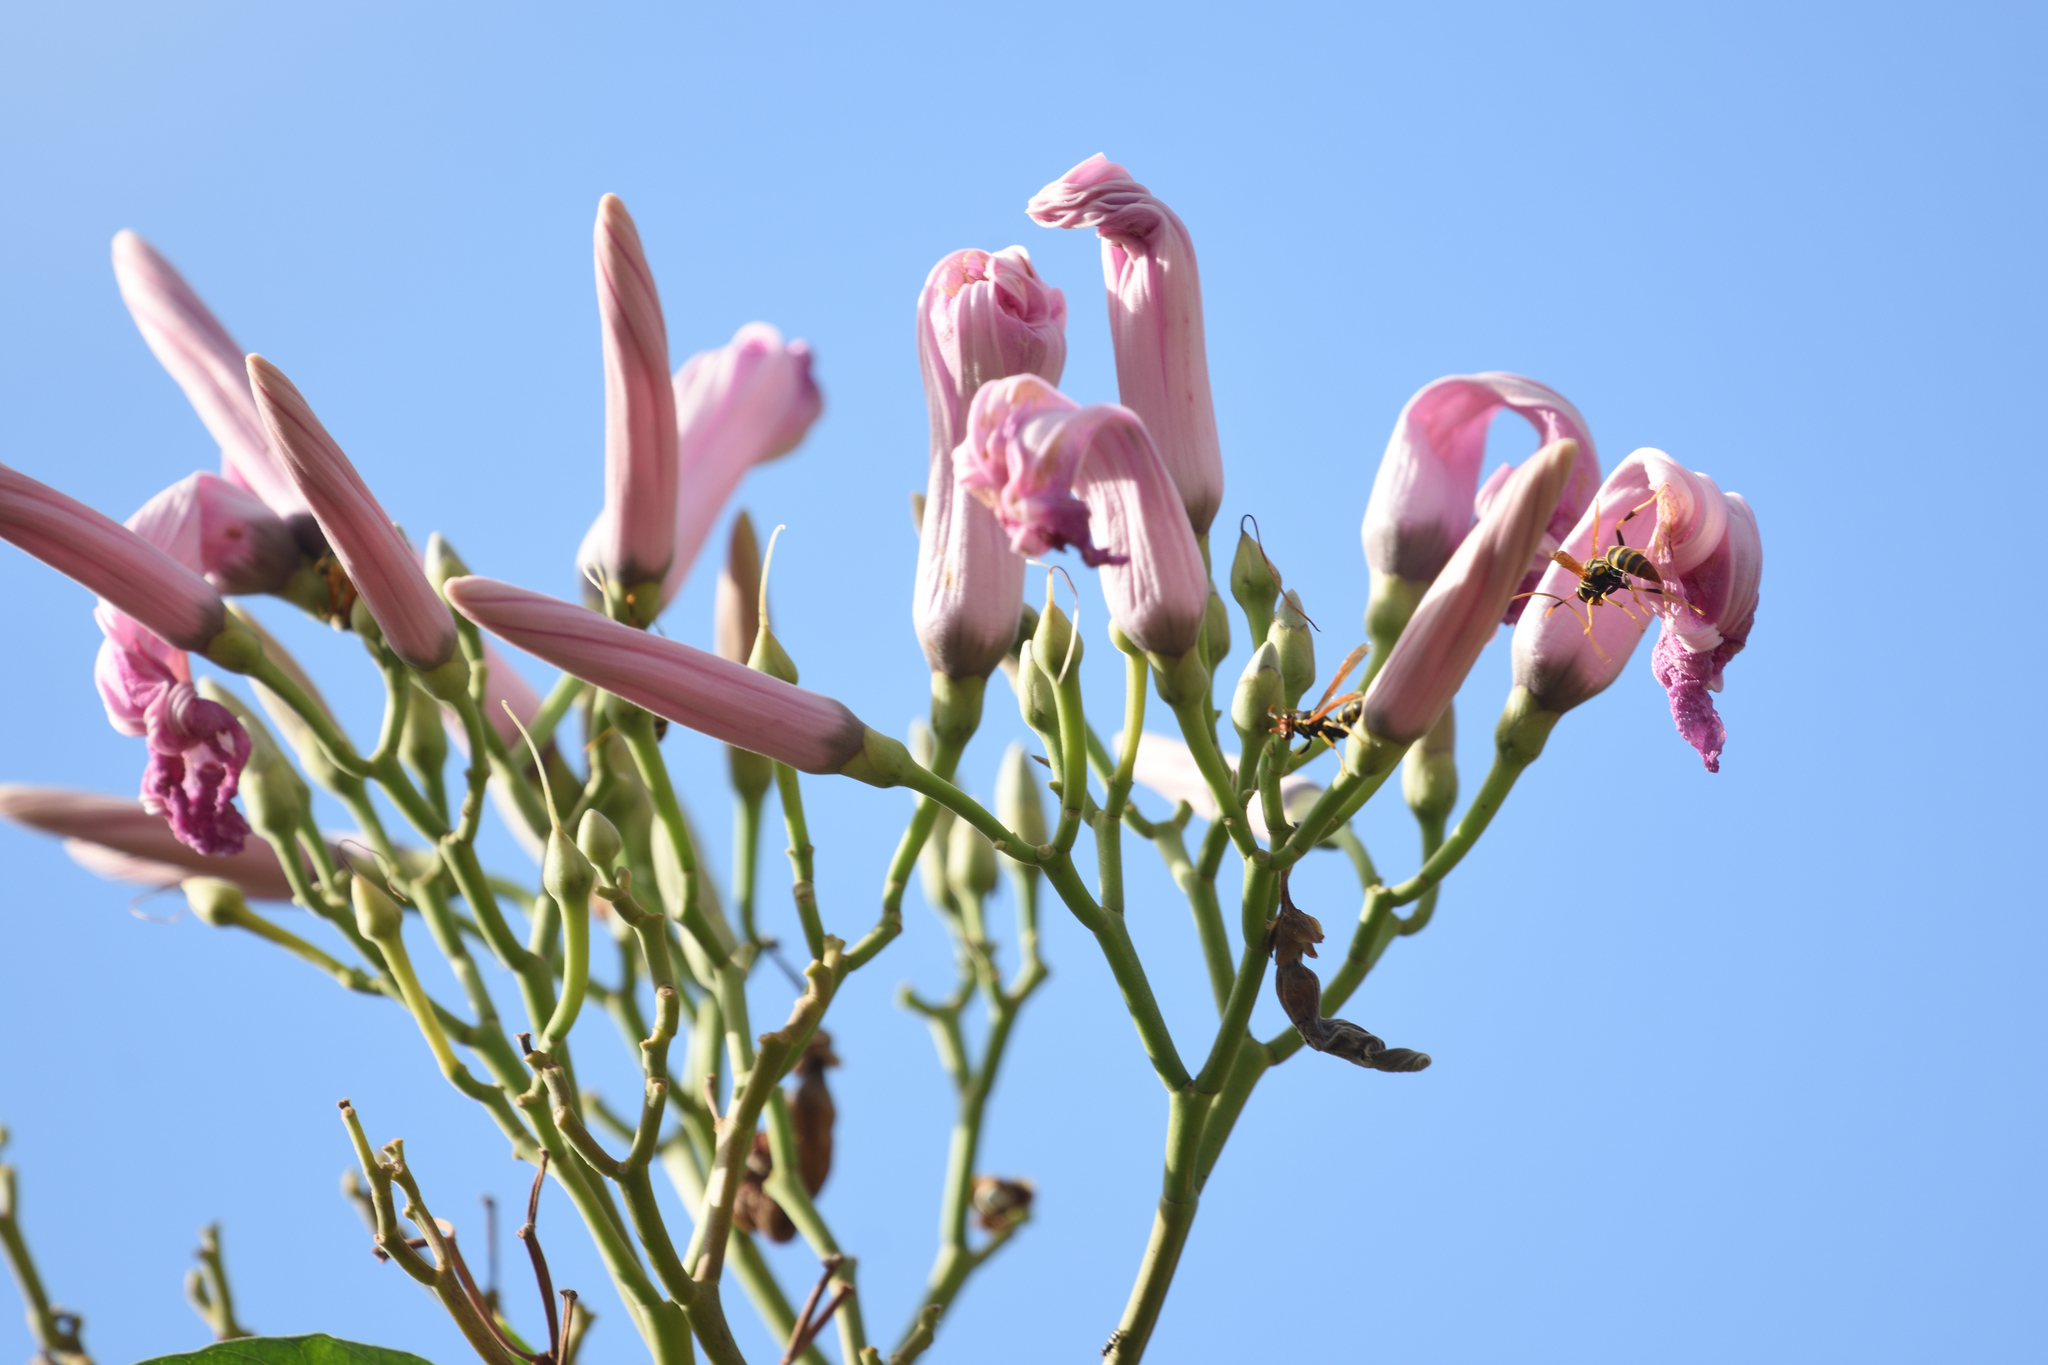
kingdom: Plantae
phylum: Tracheophyta
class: Magnoliopsida
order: Solanales
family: Convolvulaceae
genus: Ipomoea
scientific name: Ipomoea carnea
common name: Morning-glory
